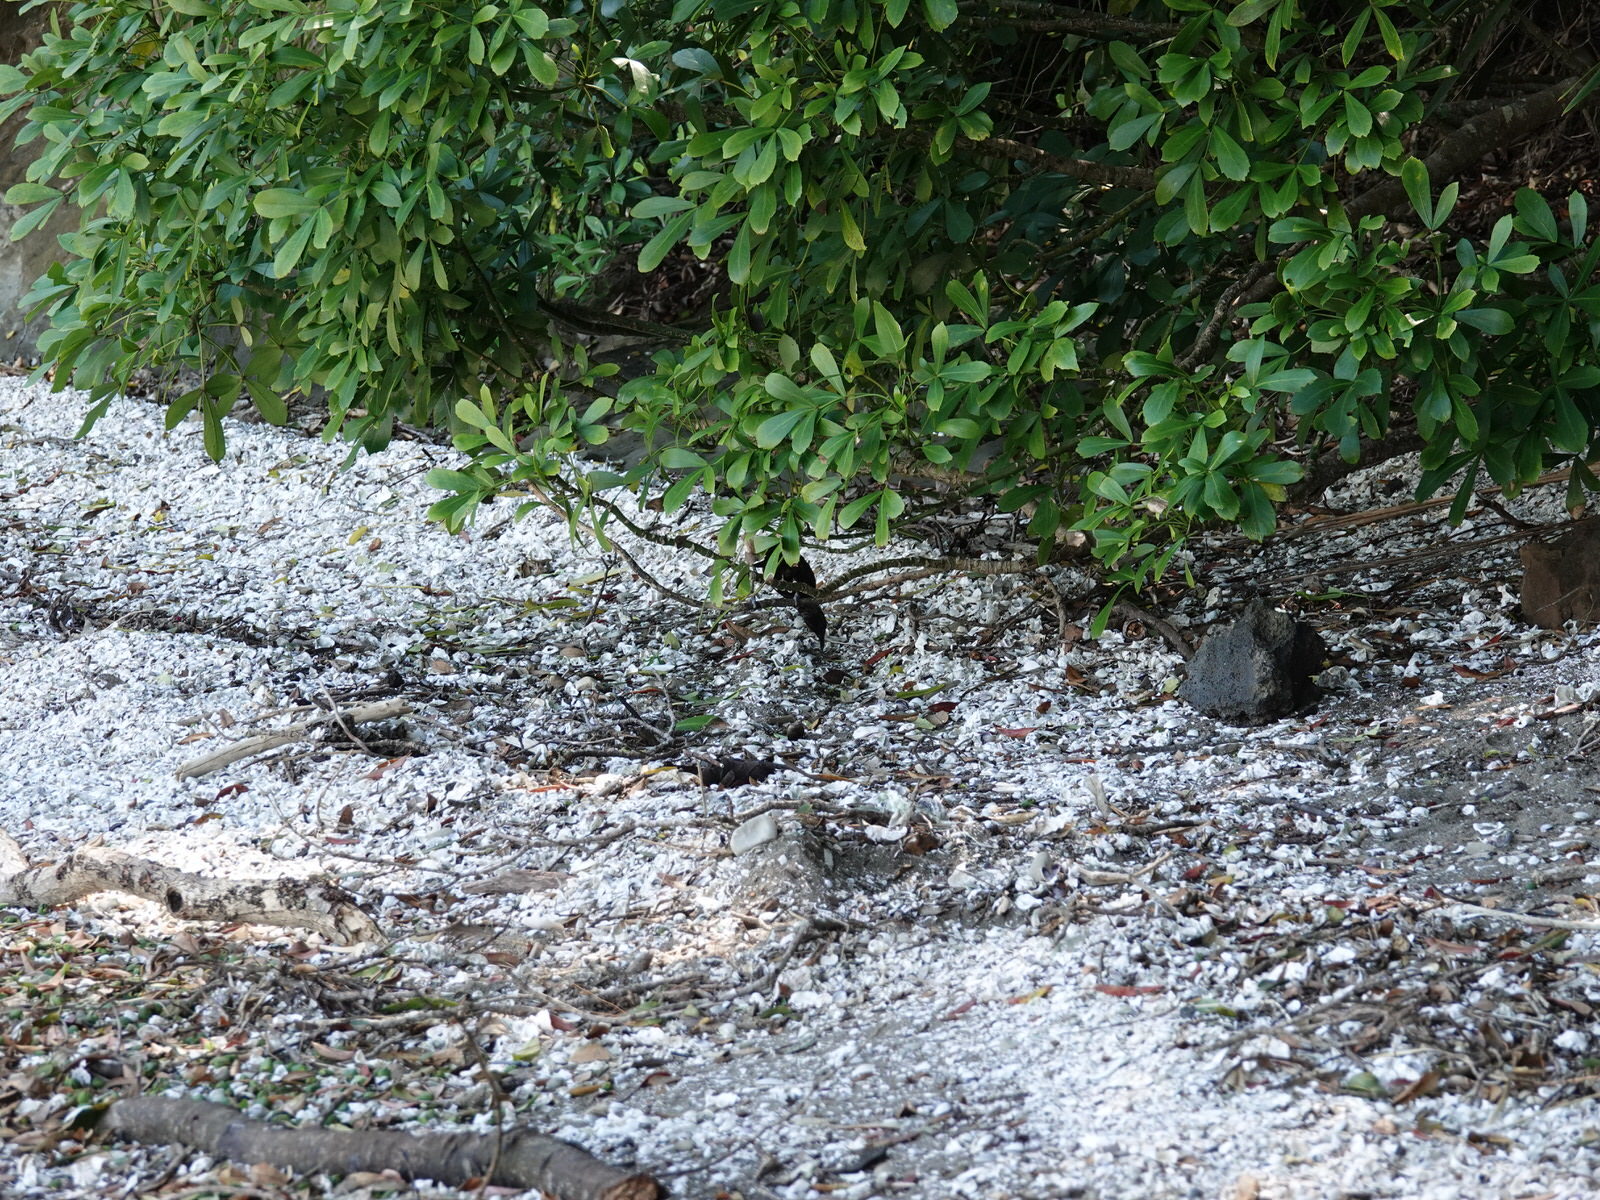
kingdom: Animalia
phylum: Chordata
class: Aves
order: Passeriformes
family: Meliphagidae
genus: Prosthemadera
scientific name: Prosthemadera novaeseelandiae
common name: Tui
